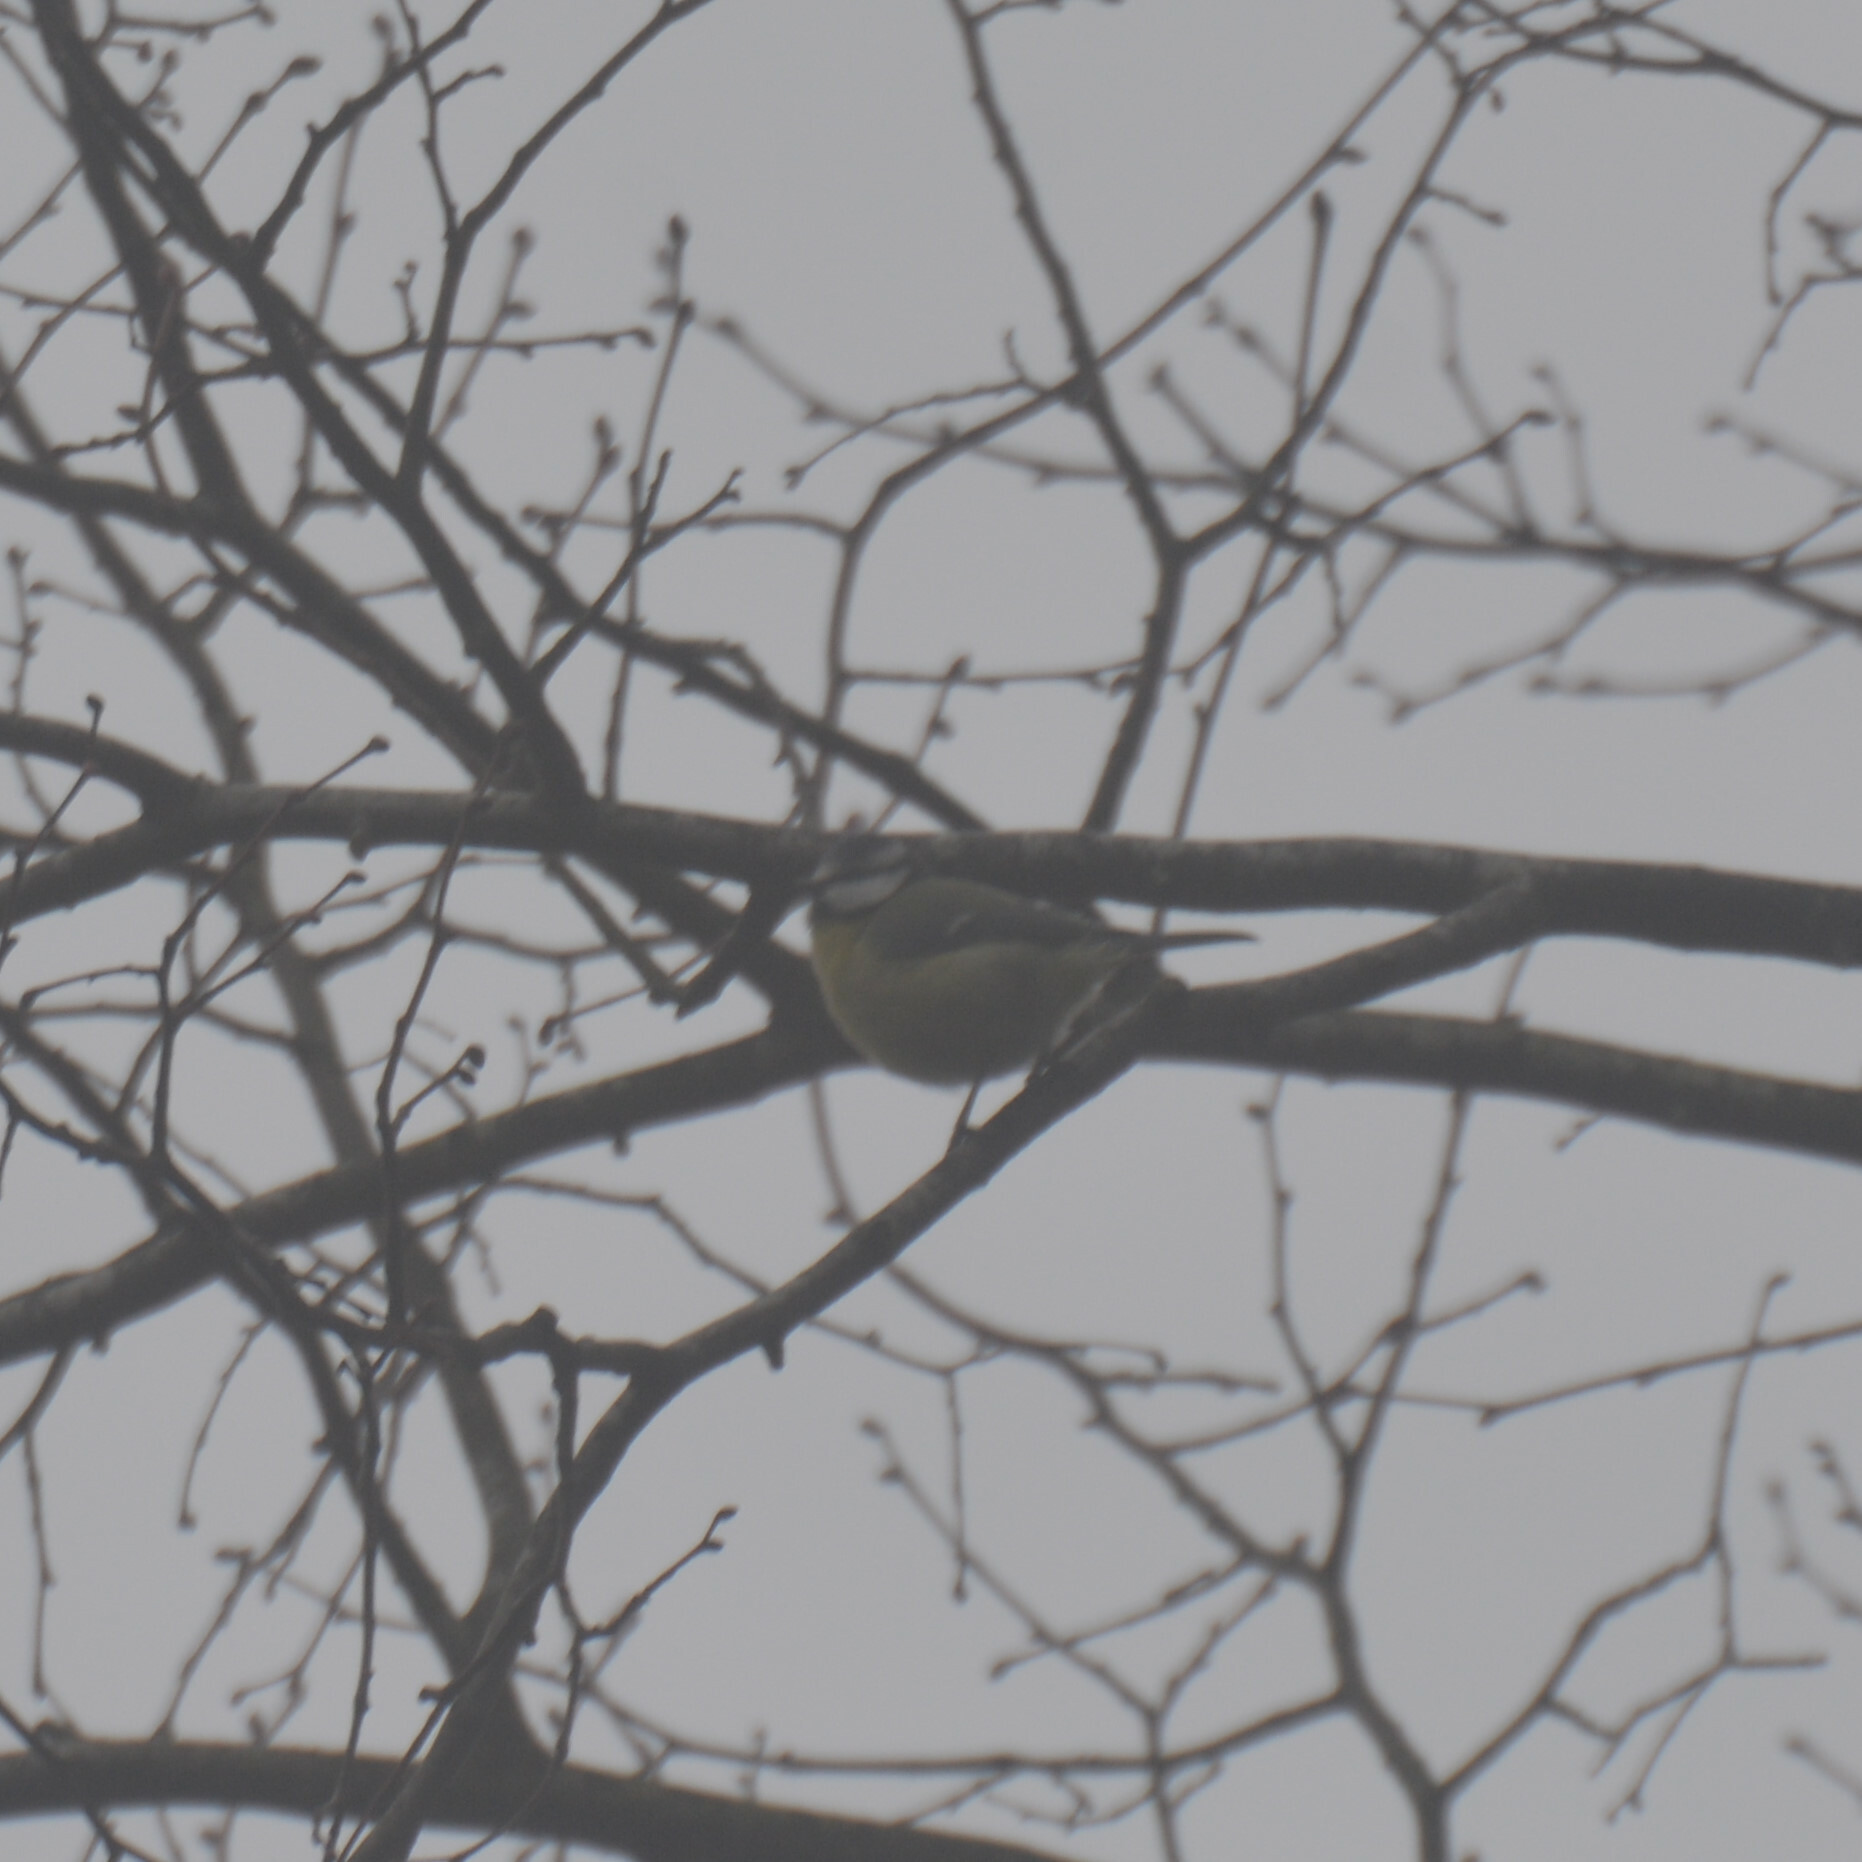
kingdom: Animalia
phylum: Chordata
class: Aves
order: Passeriformes
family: Paridae
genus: Cyanistes
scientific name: Cyanistes caeruleus
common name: Eurasian blue tit
